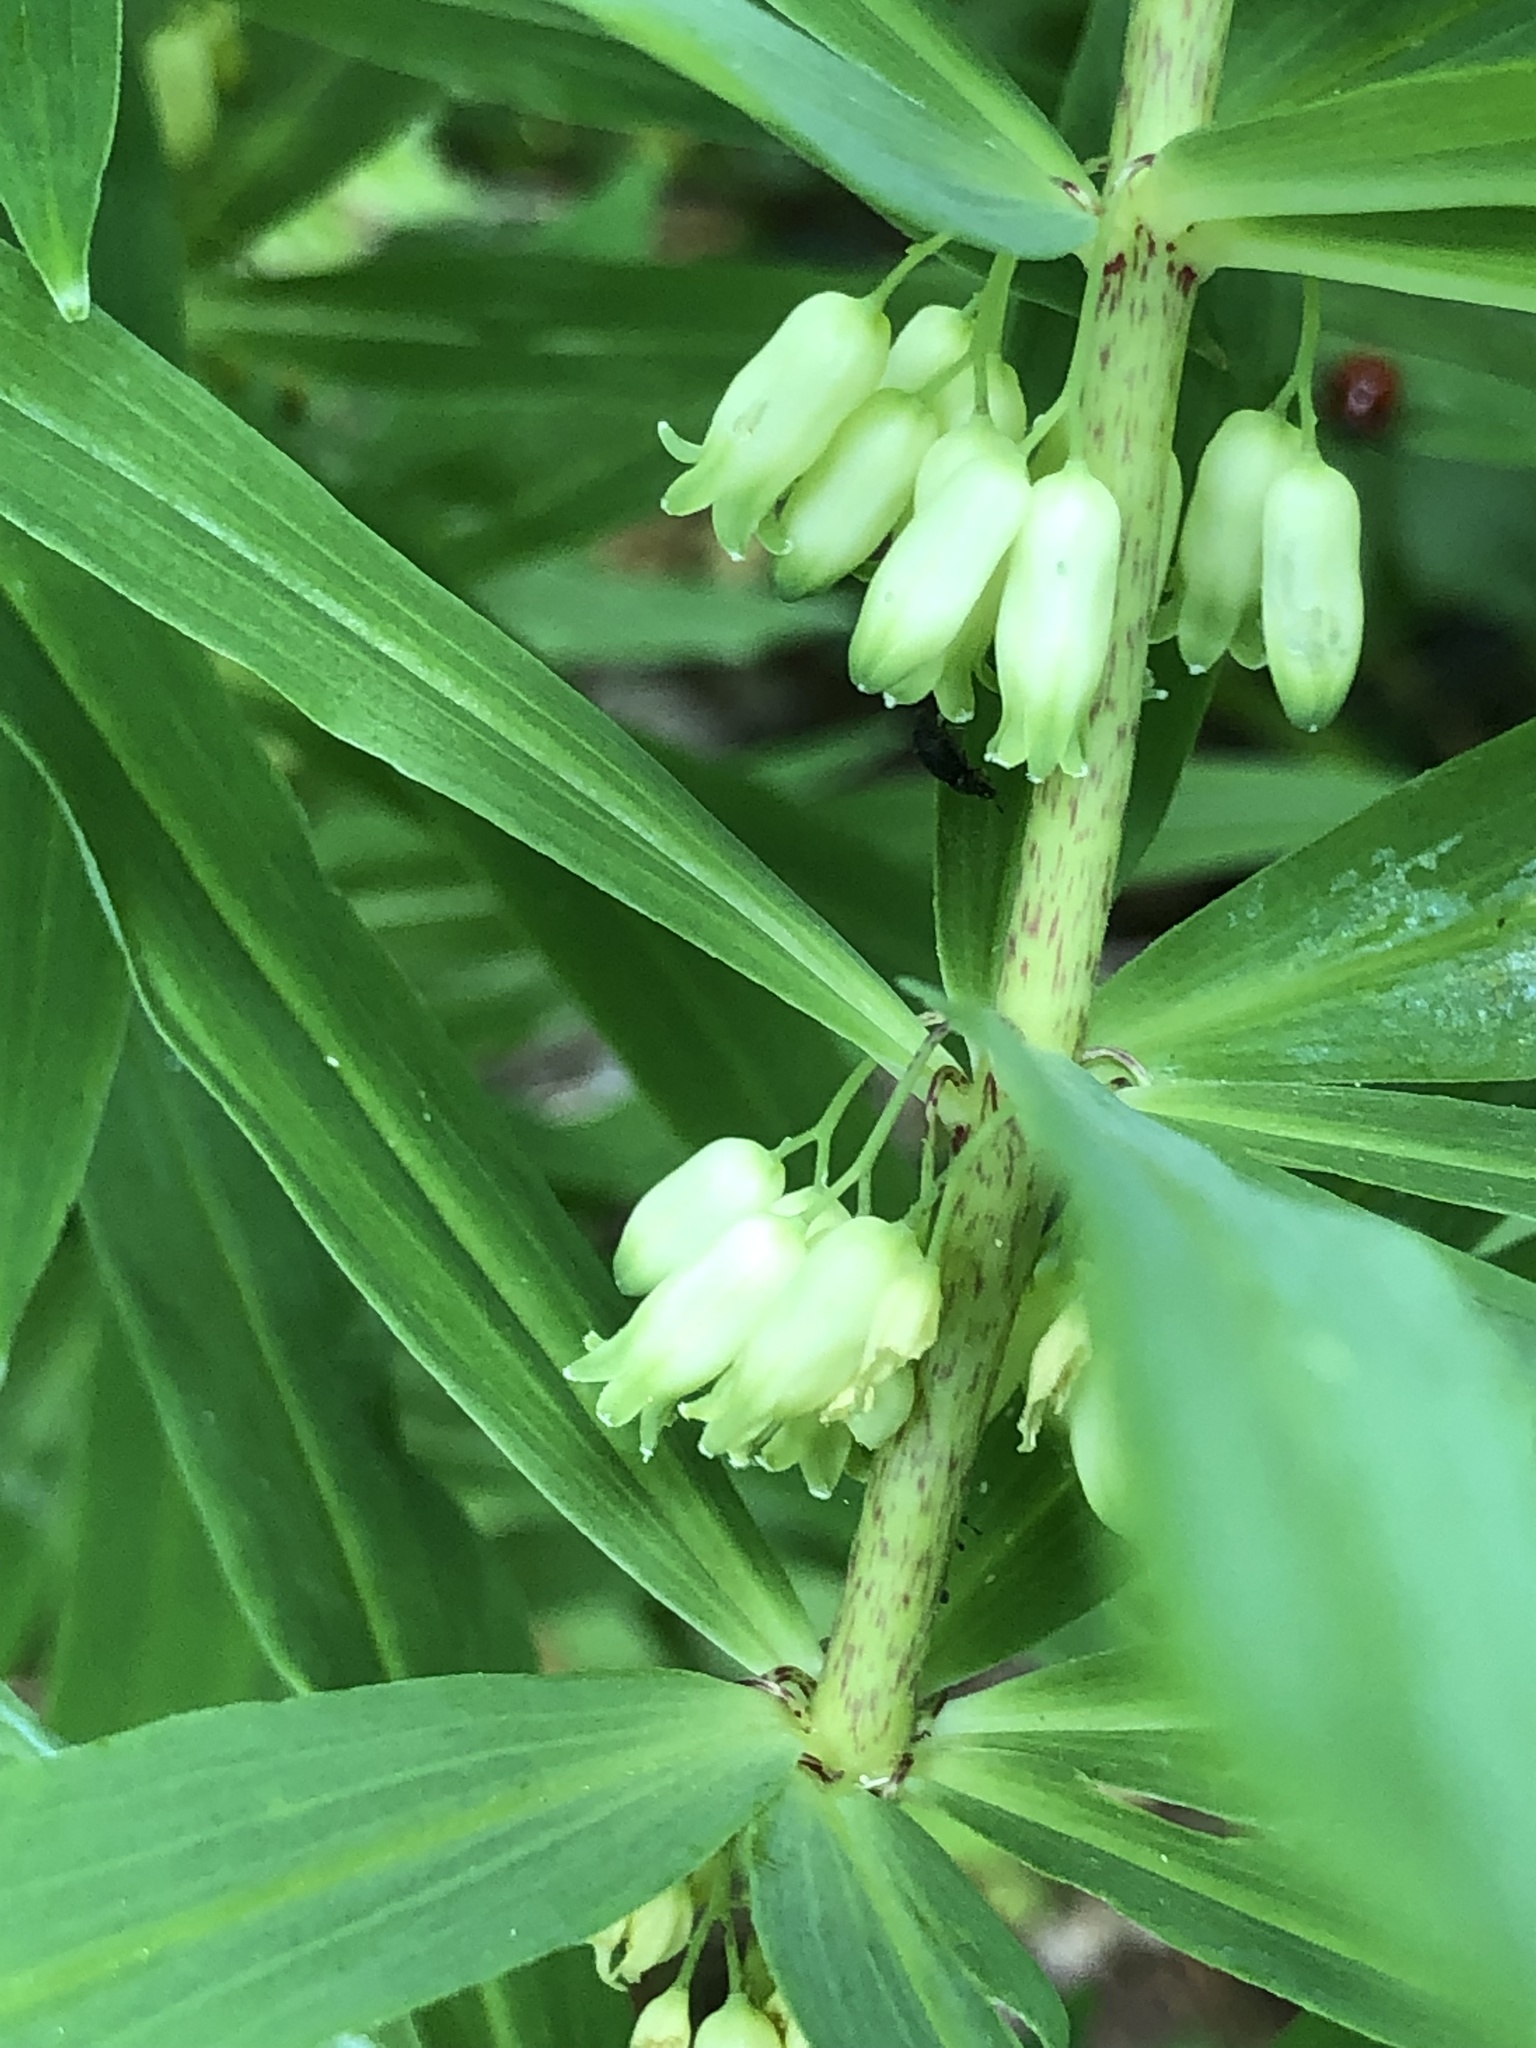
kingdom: Plantae
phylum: Tracheophyta
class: Liliopsida
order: Asparagales
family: Asparagaceae
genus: Polygonatum
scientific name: Polygonatum verticillatum
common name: Whorled solomon's-seal
